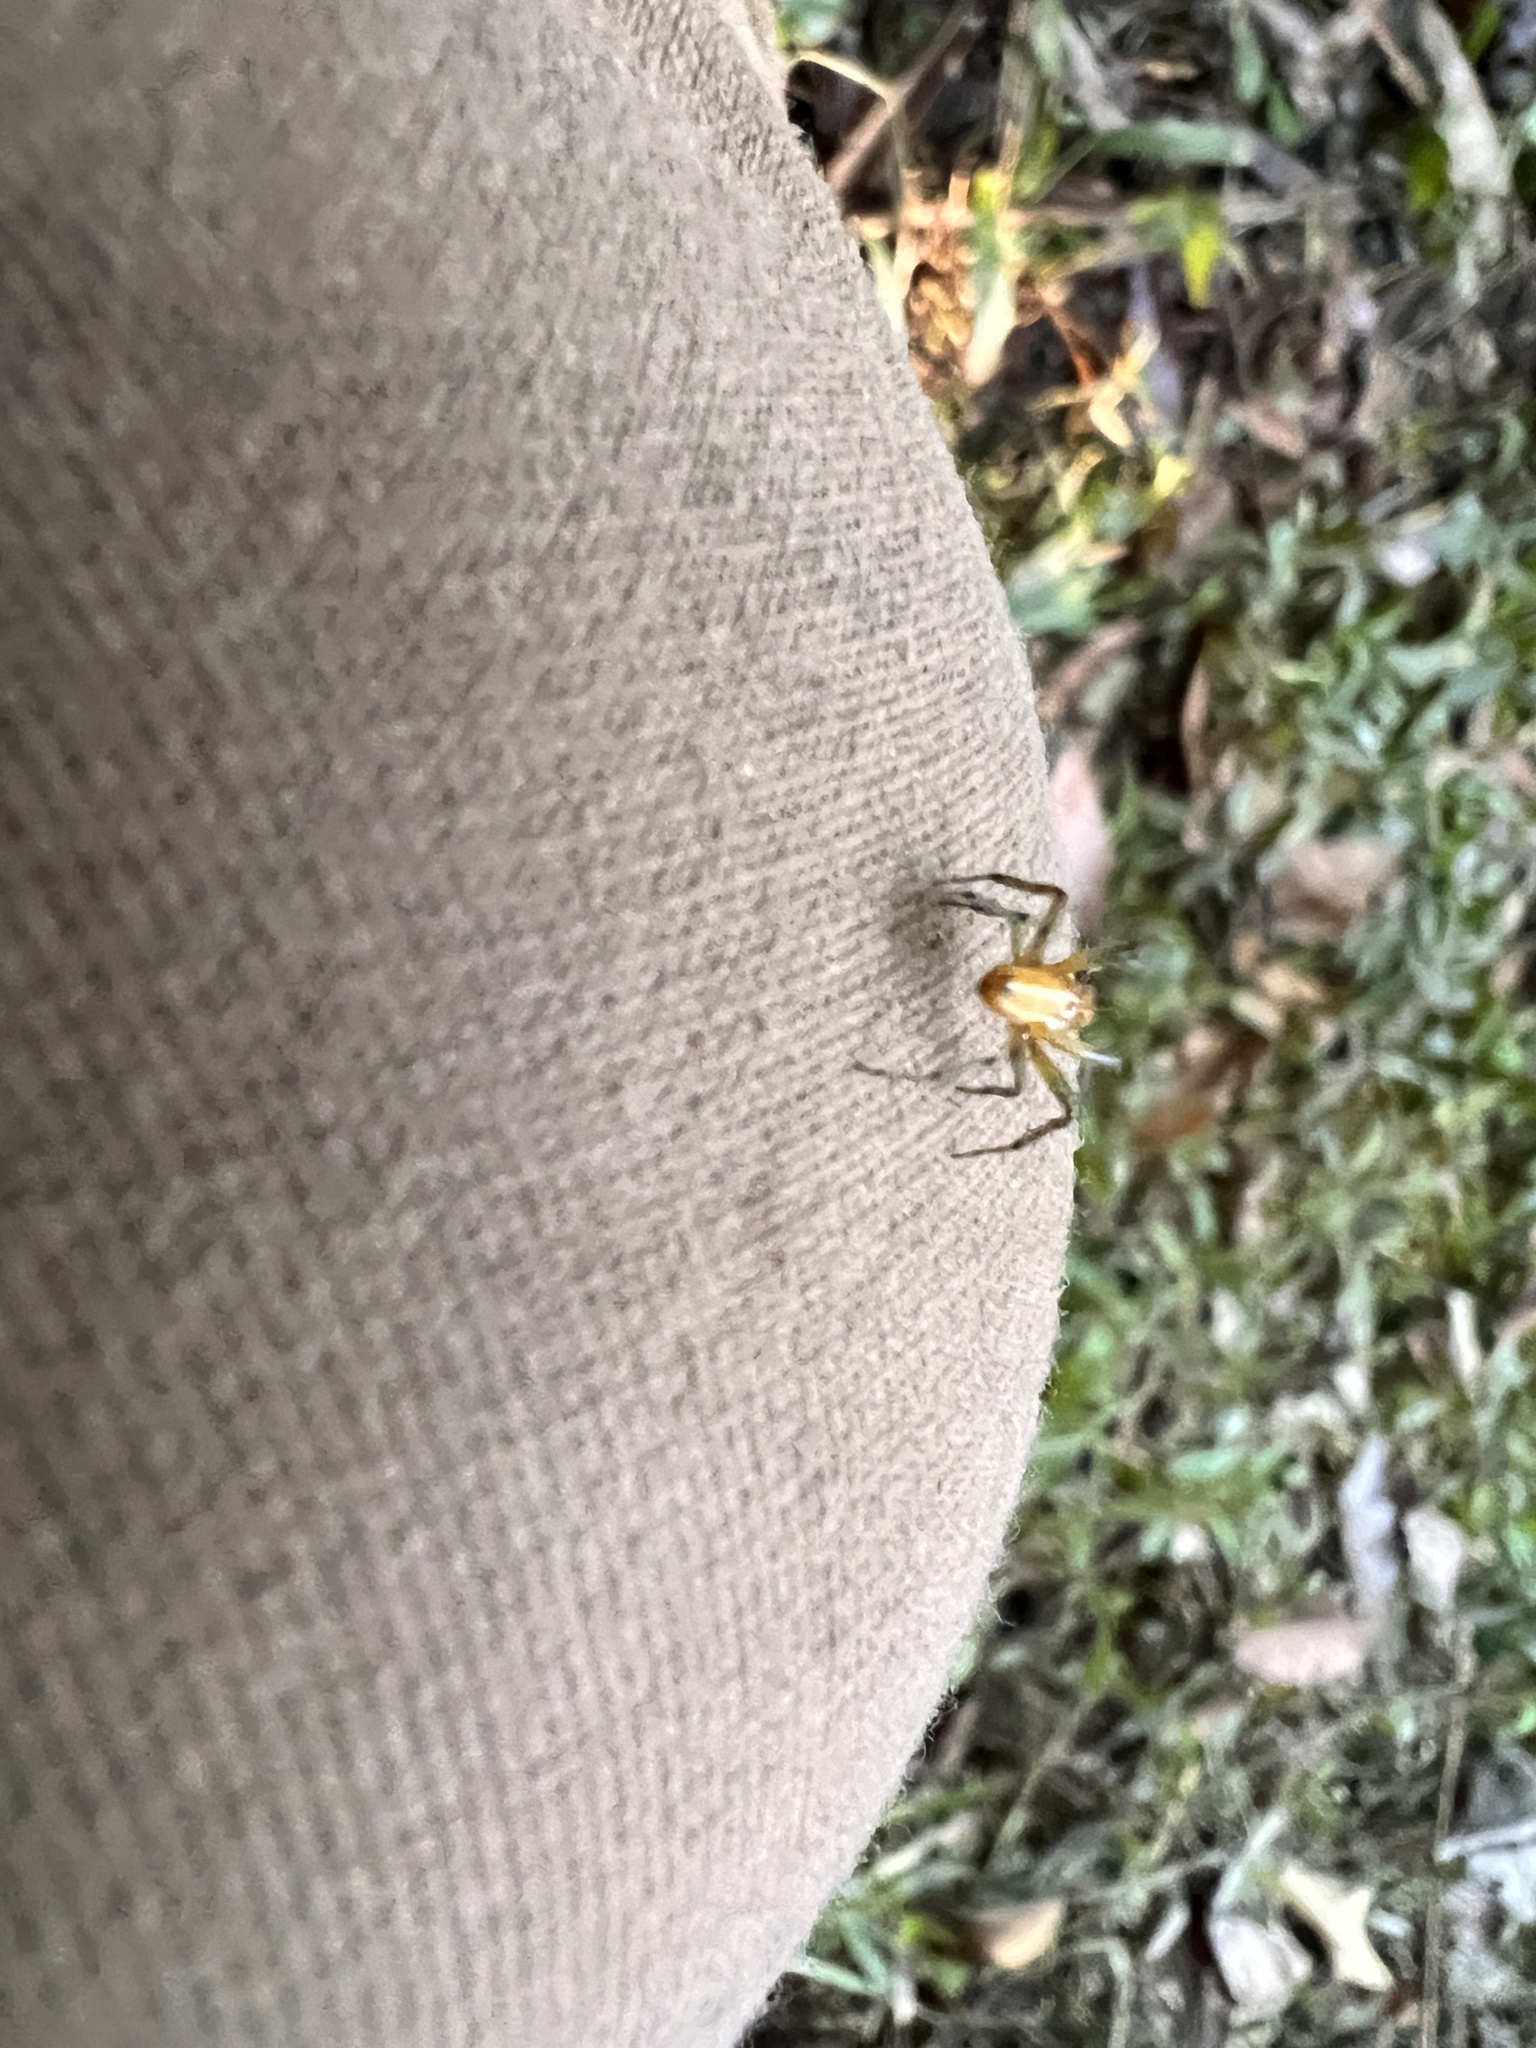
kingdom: Animalia
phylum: Arthropoda
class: Arachnida
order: Araneae
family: Araneidae
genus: Alpaida
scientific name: Alpaida rubellula
